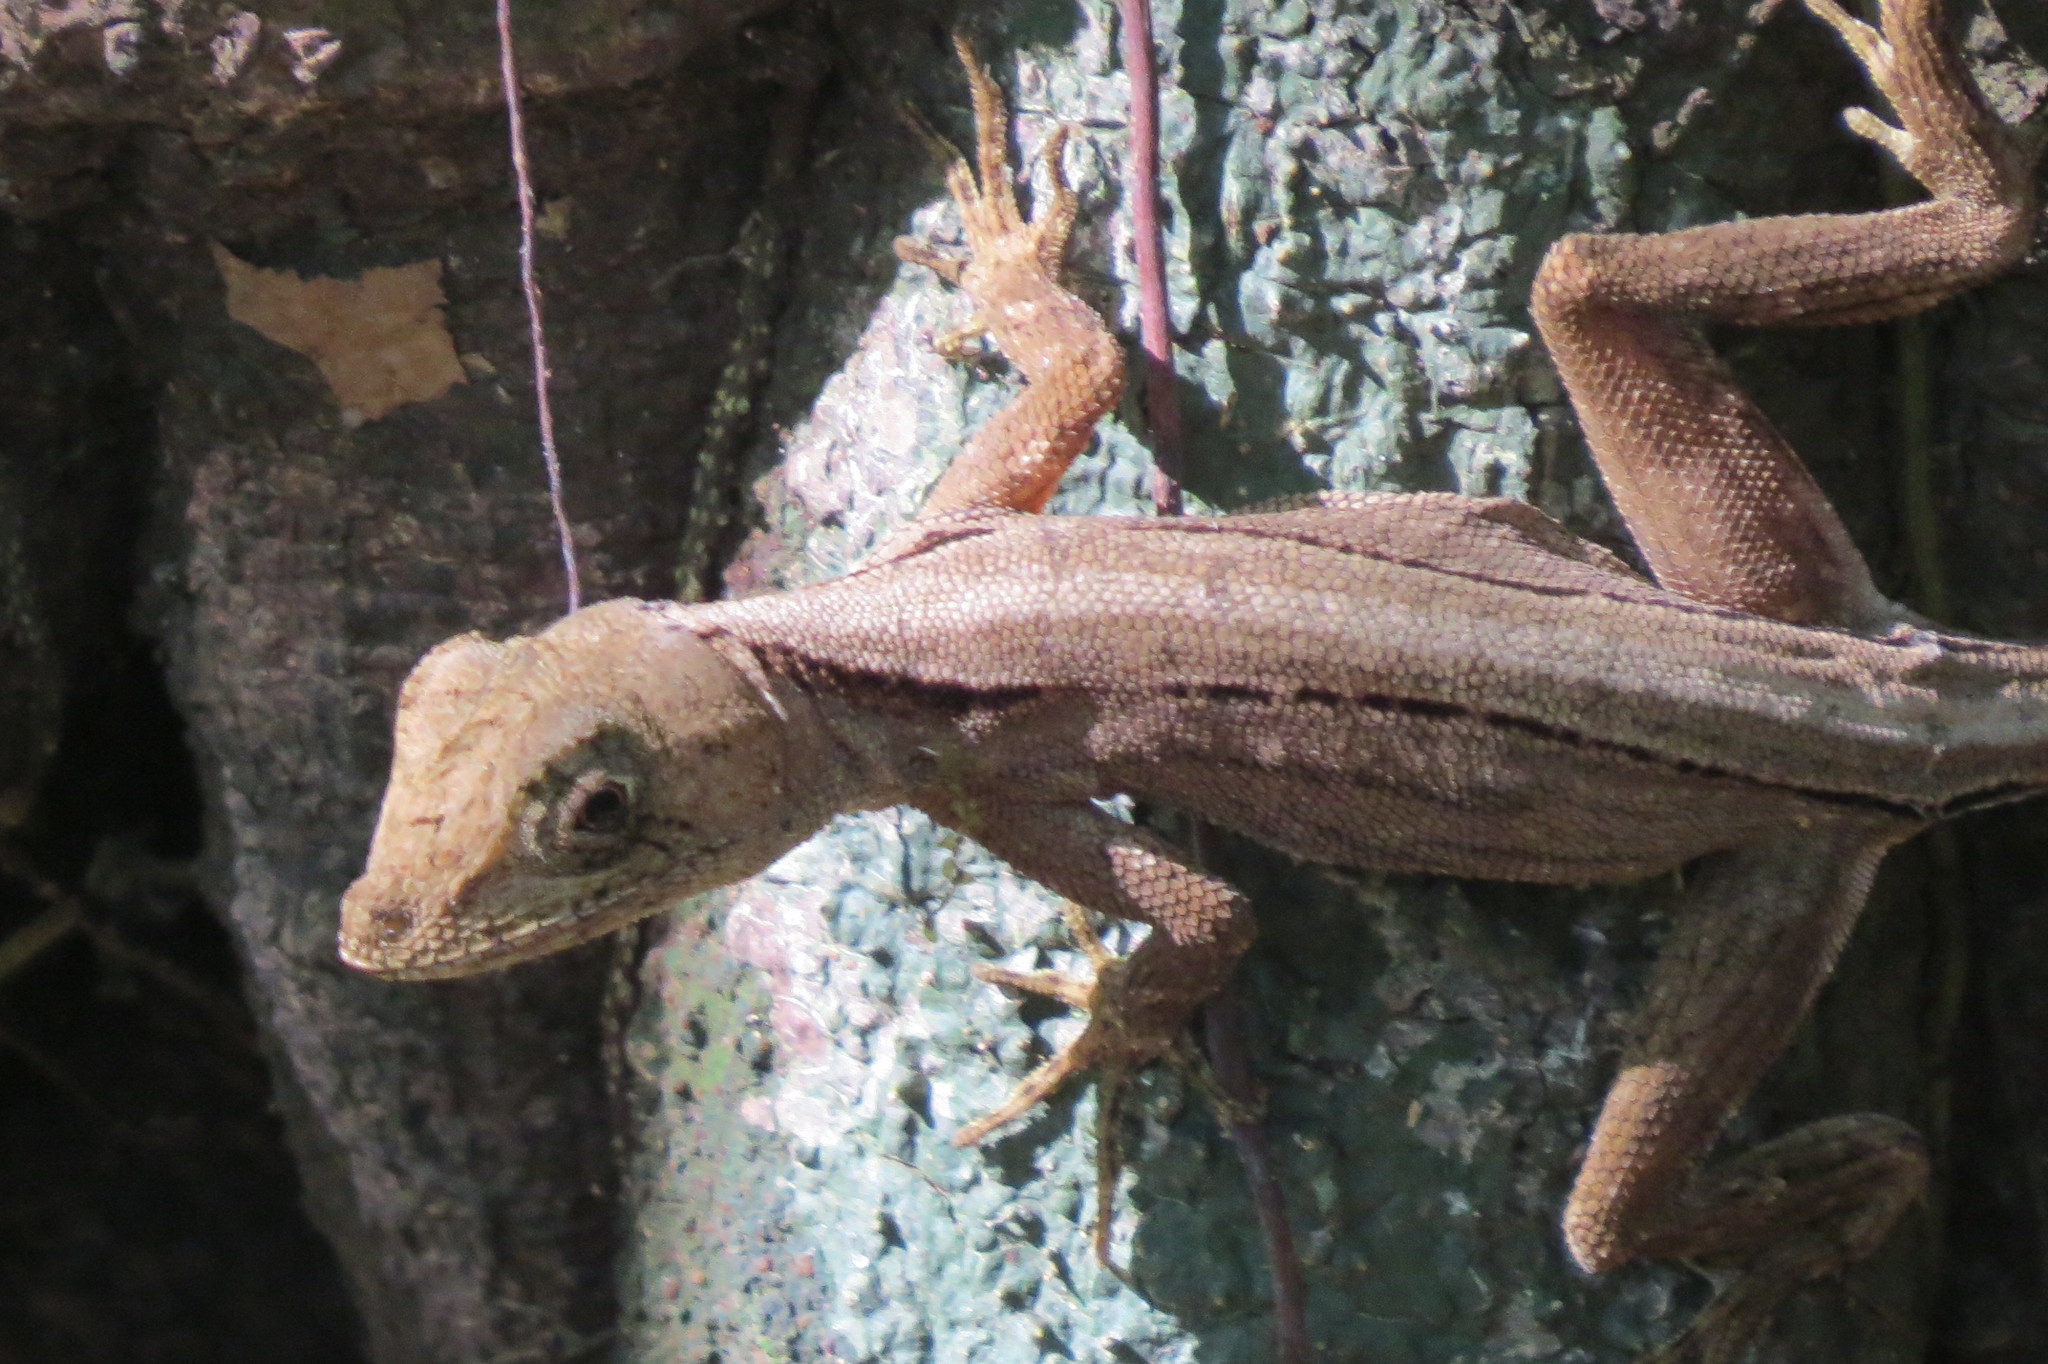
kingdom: Animalia
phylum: Chordata
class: Squamata
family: Dactyloidae
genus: Anolis
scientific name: Anolis capito
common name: Bighead anole
